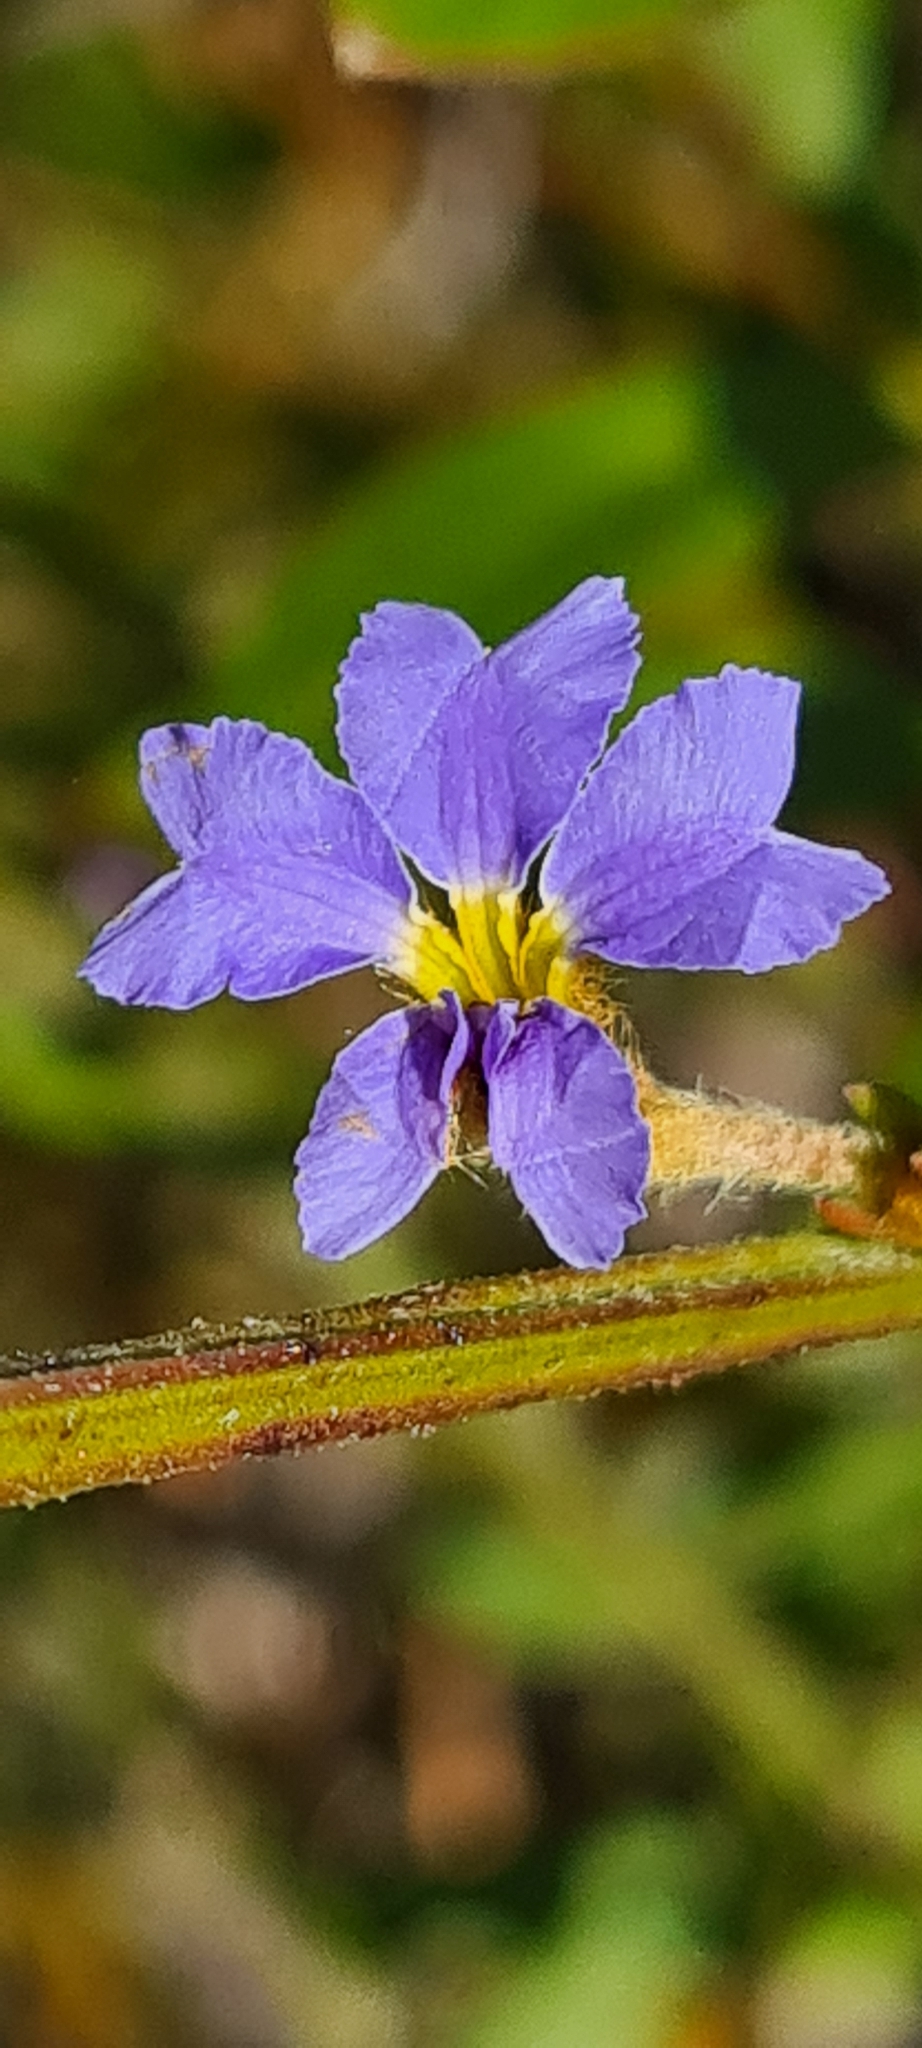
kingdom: Plantae
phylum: Tracheophyta
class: Magnoliopsida
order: Asterales
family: Goodeniaceae
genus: Dampiera
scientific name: Dampiera stricta
